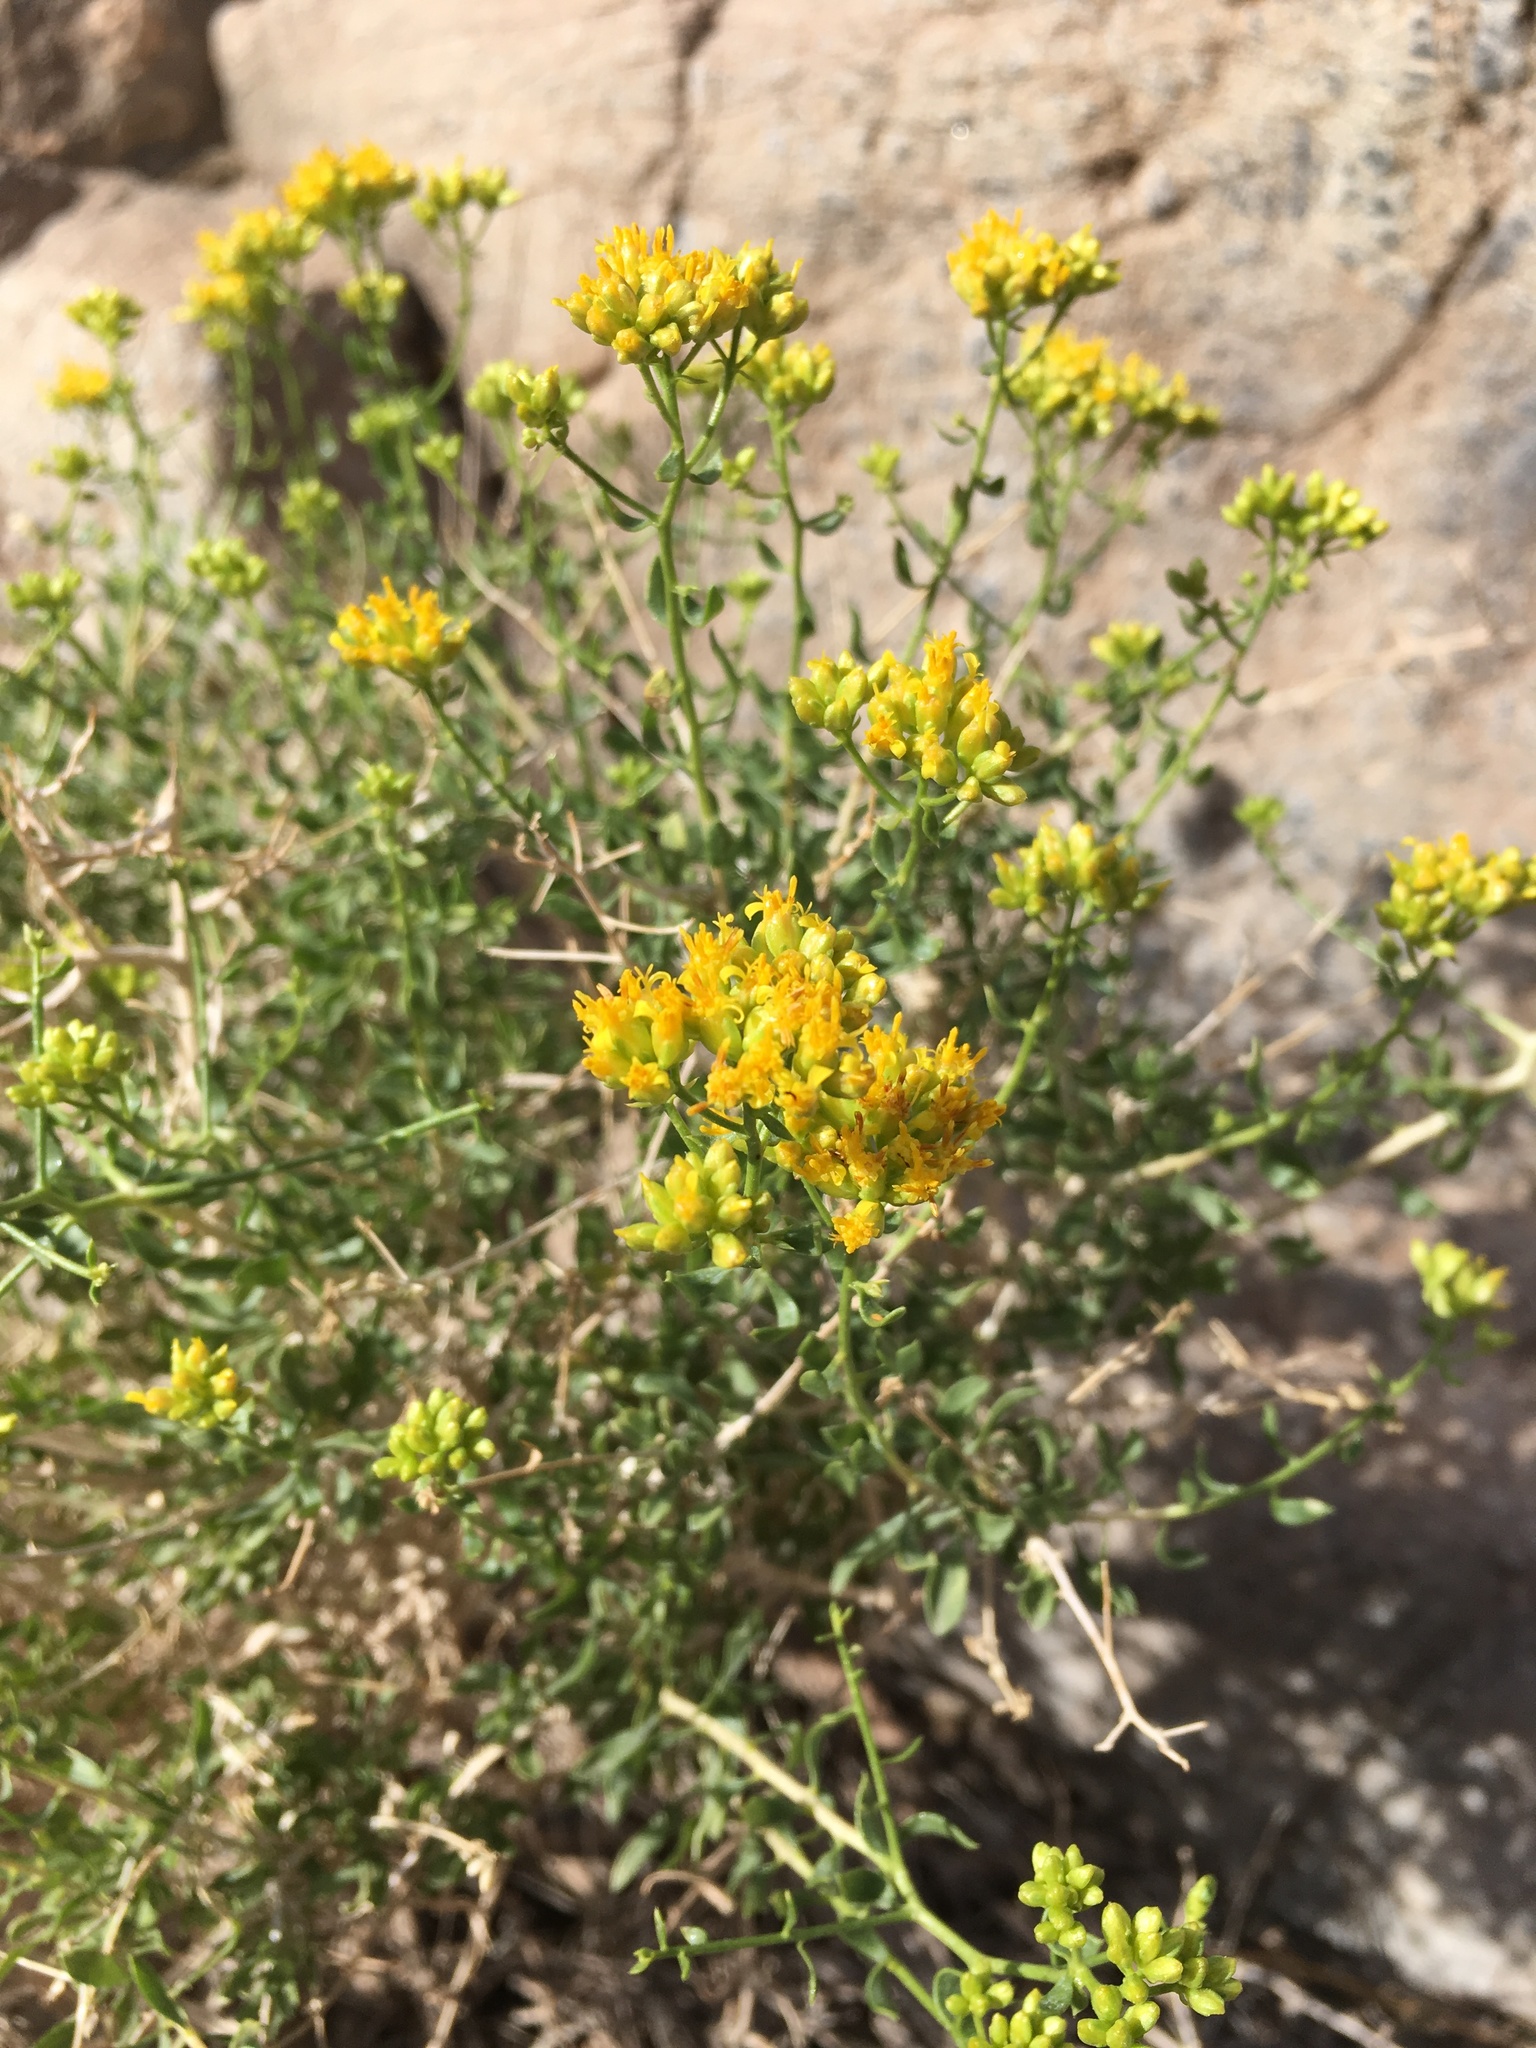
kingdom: Plantae
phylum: Tracheophyta
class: Magnoliopsida
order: Asterales
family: Asteraceae
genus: Amphipappus
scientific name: Amphipappus fremontii
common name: Fremont's chaffbush
